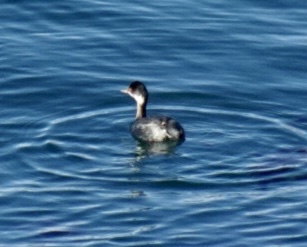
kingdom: Animalia
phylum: Chordata
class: Aves
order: Podicipediformes
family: Podicipedidae
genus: Podiceps
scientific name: Podiceps nigricollis
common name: Black-necked grebe
